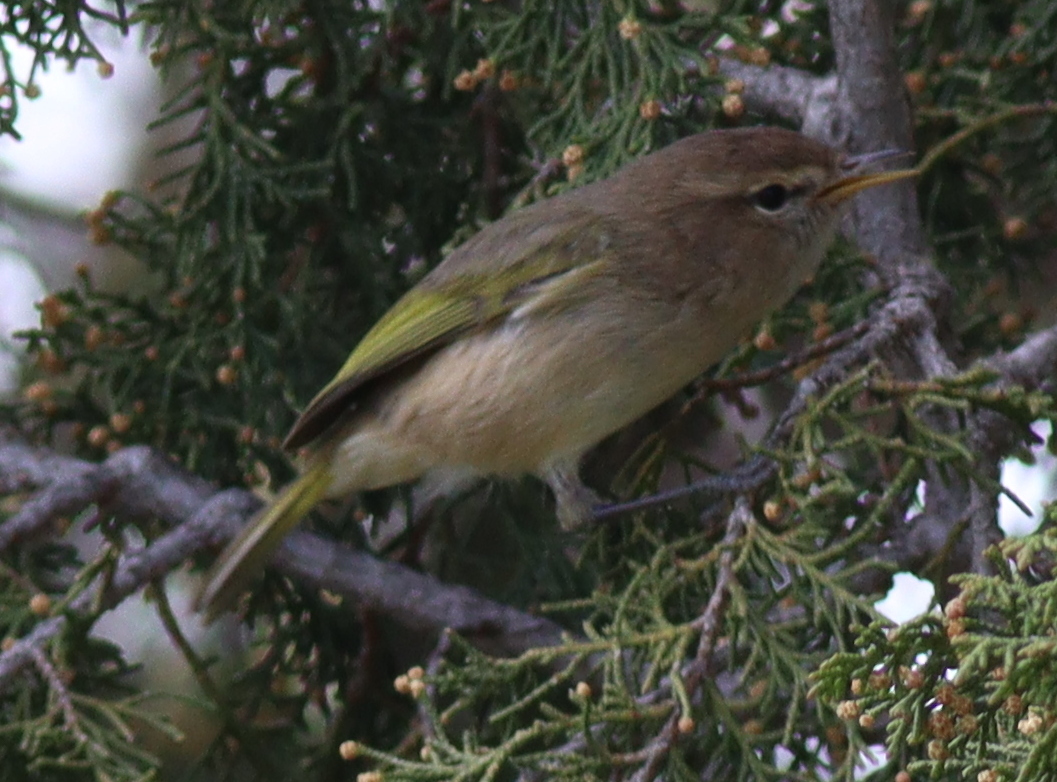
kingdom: Animalia
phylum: Chordata
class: Aves
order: Passeriformes
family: Phylloscopidae
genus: Phylloscopus
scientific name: Phylloscopus umbrovirens
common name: Brown woodland warbler
